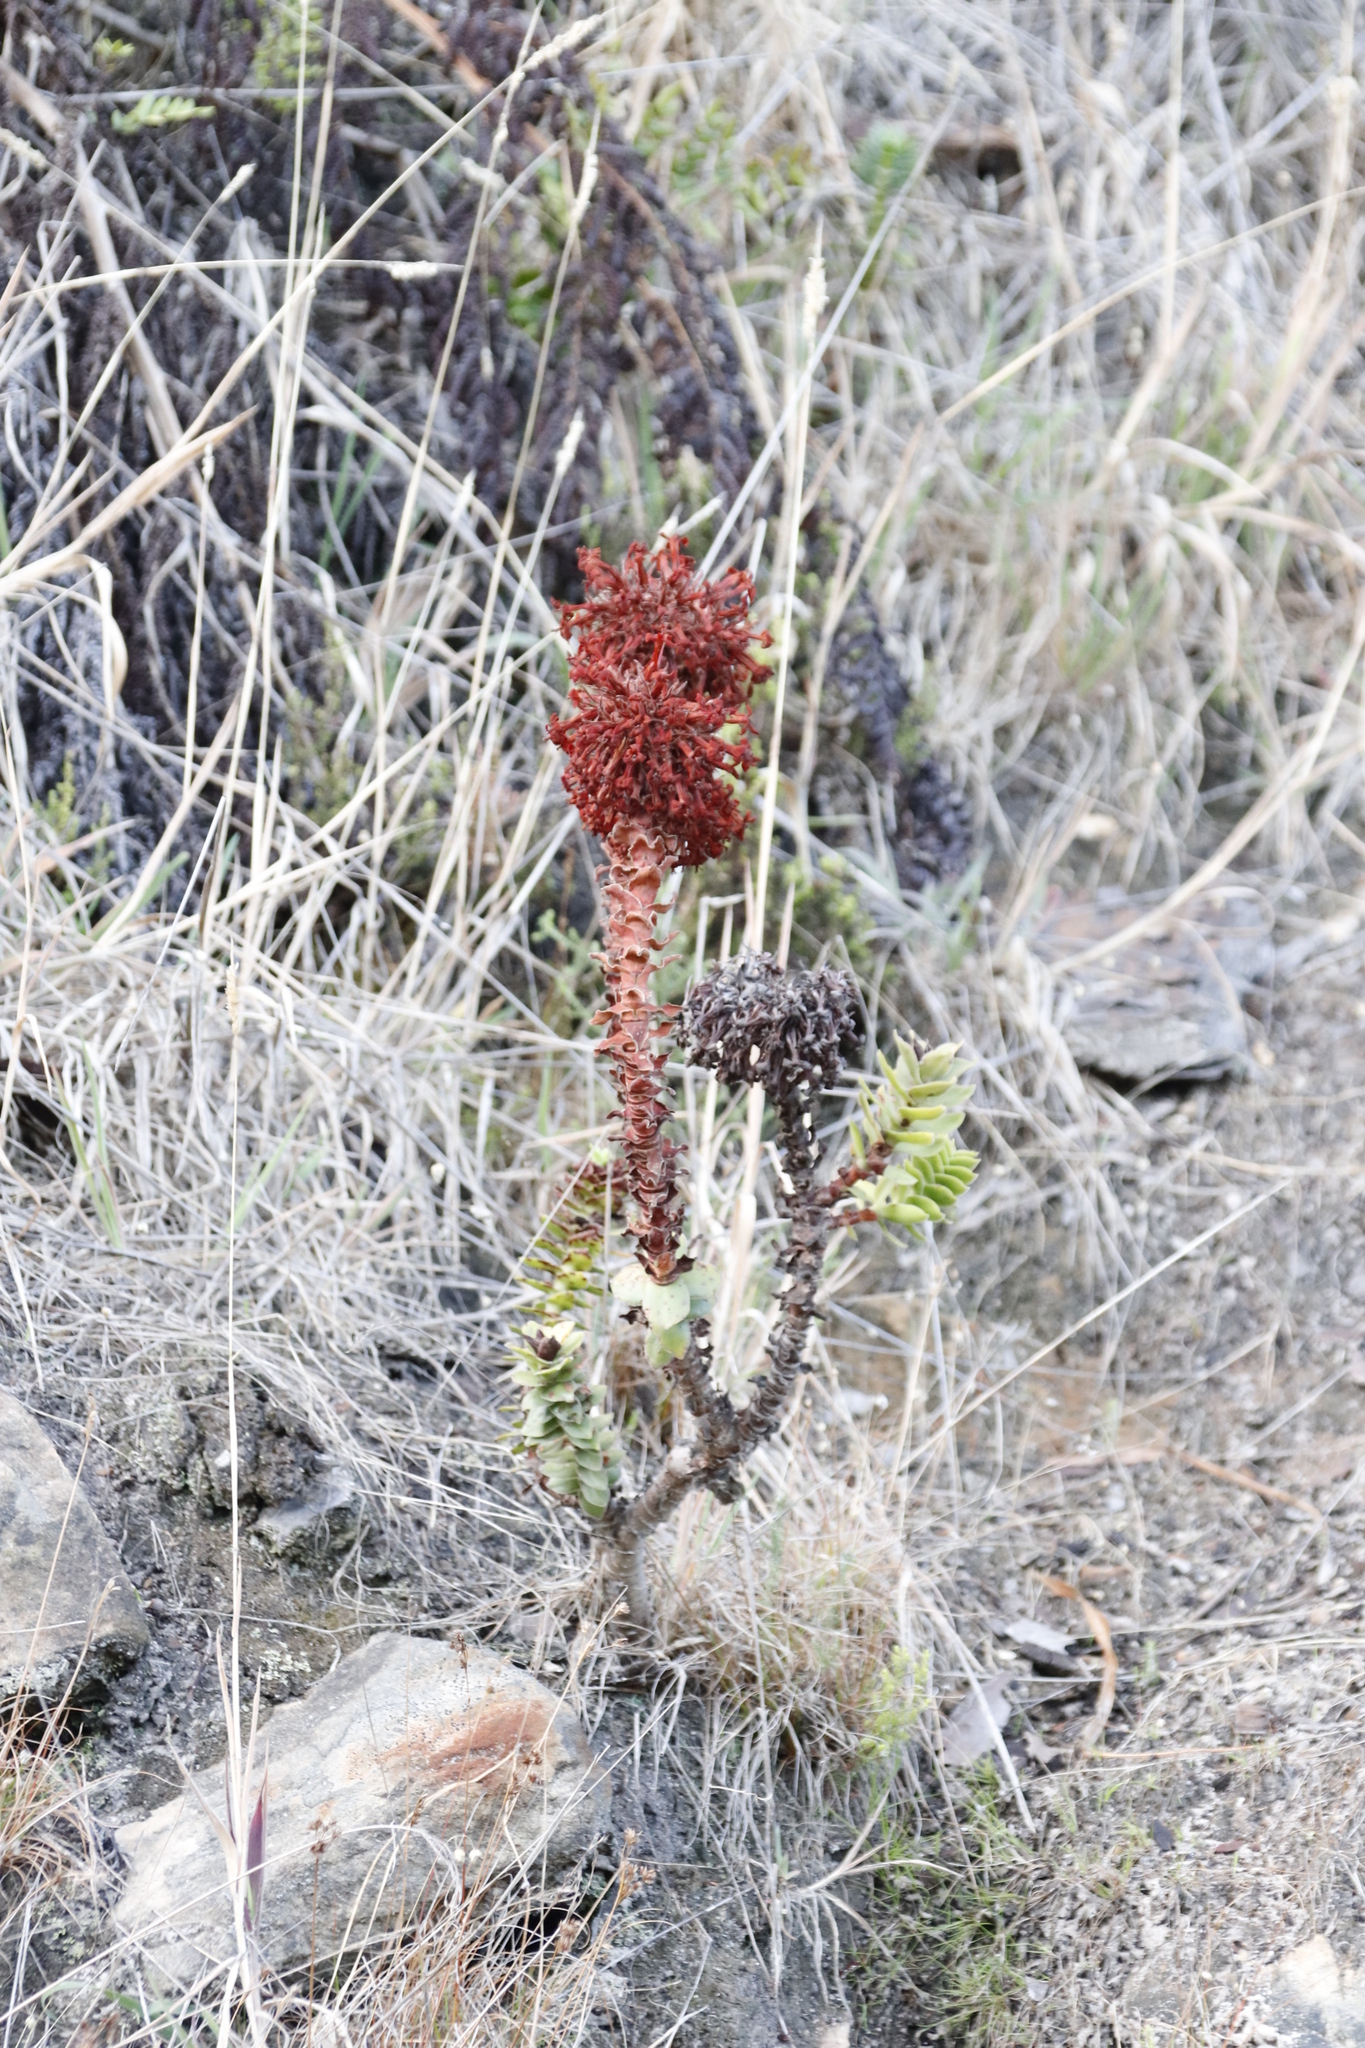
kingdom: Plantae
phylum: Tracheophyta
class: Magnoliopsida
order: Saxifragales
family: Crassulaceae
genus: Crassula
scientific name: Crassula coccinea
